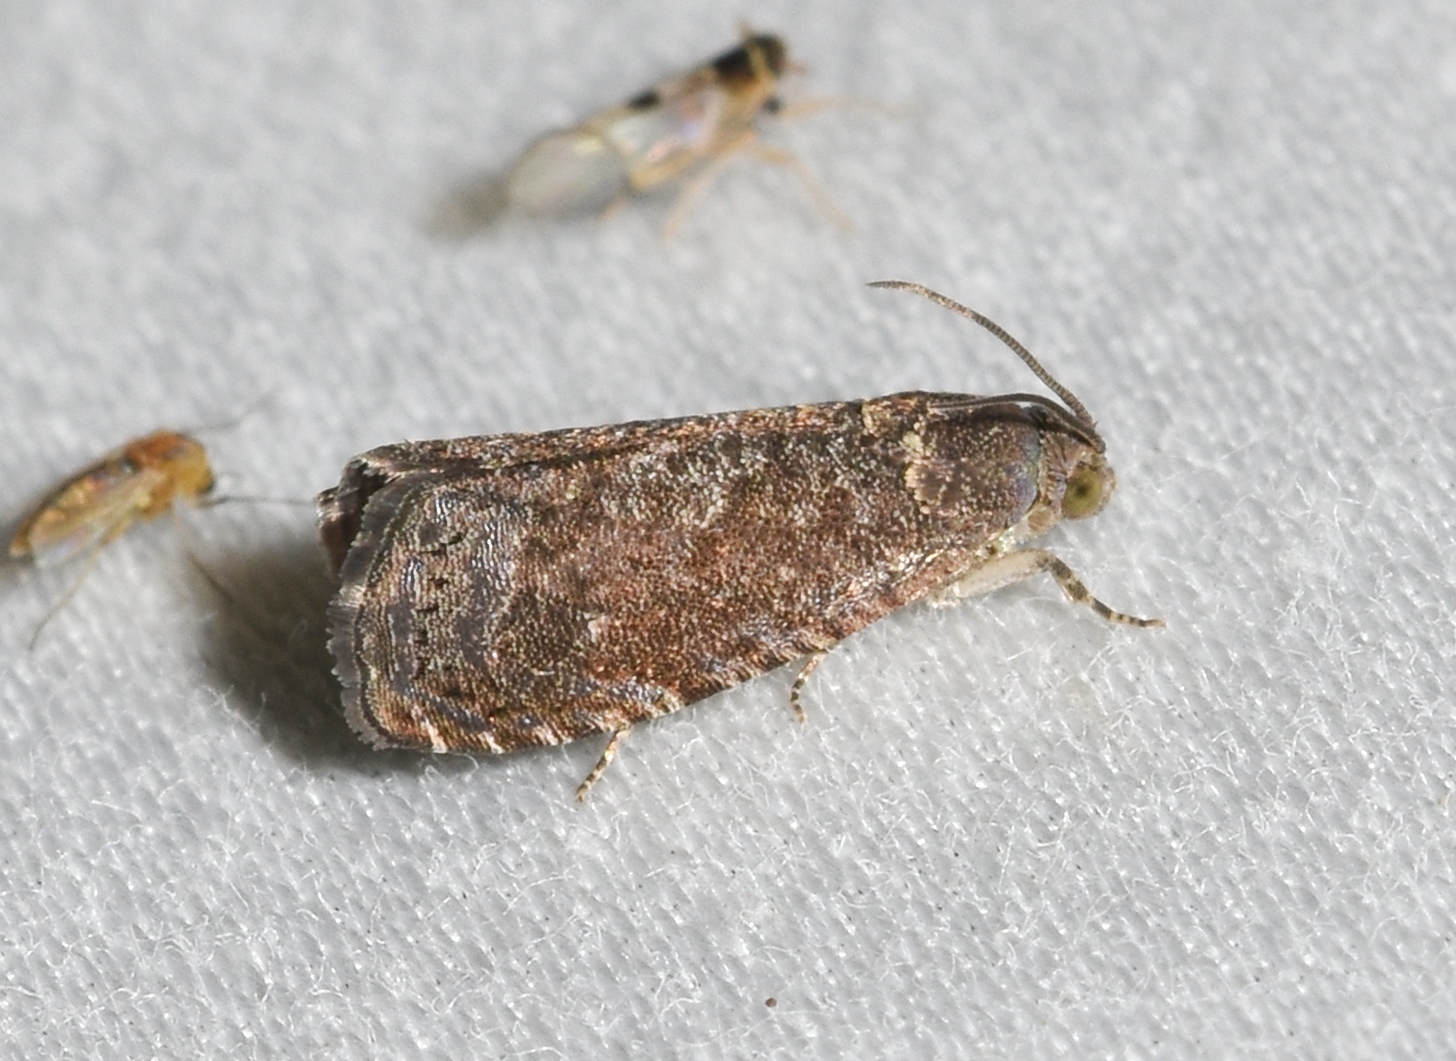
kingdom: Animalia
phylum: Arthropoda
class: Insecta
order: Lepidoptera
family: Noctuidae
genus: Aspila
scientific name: Aspila
